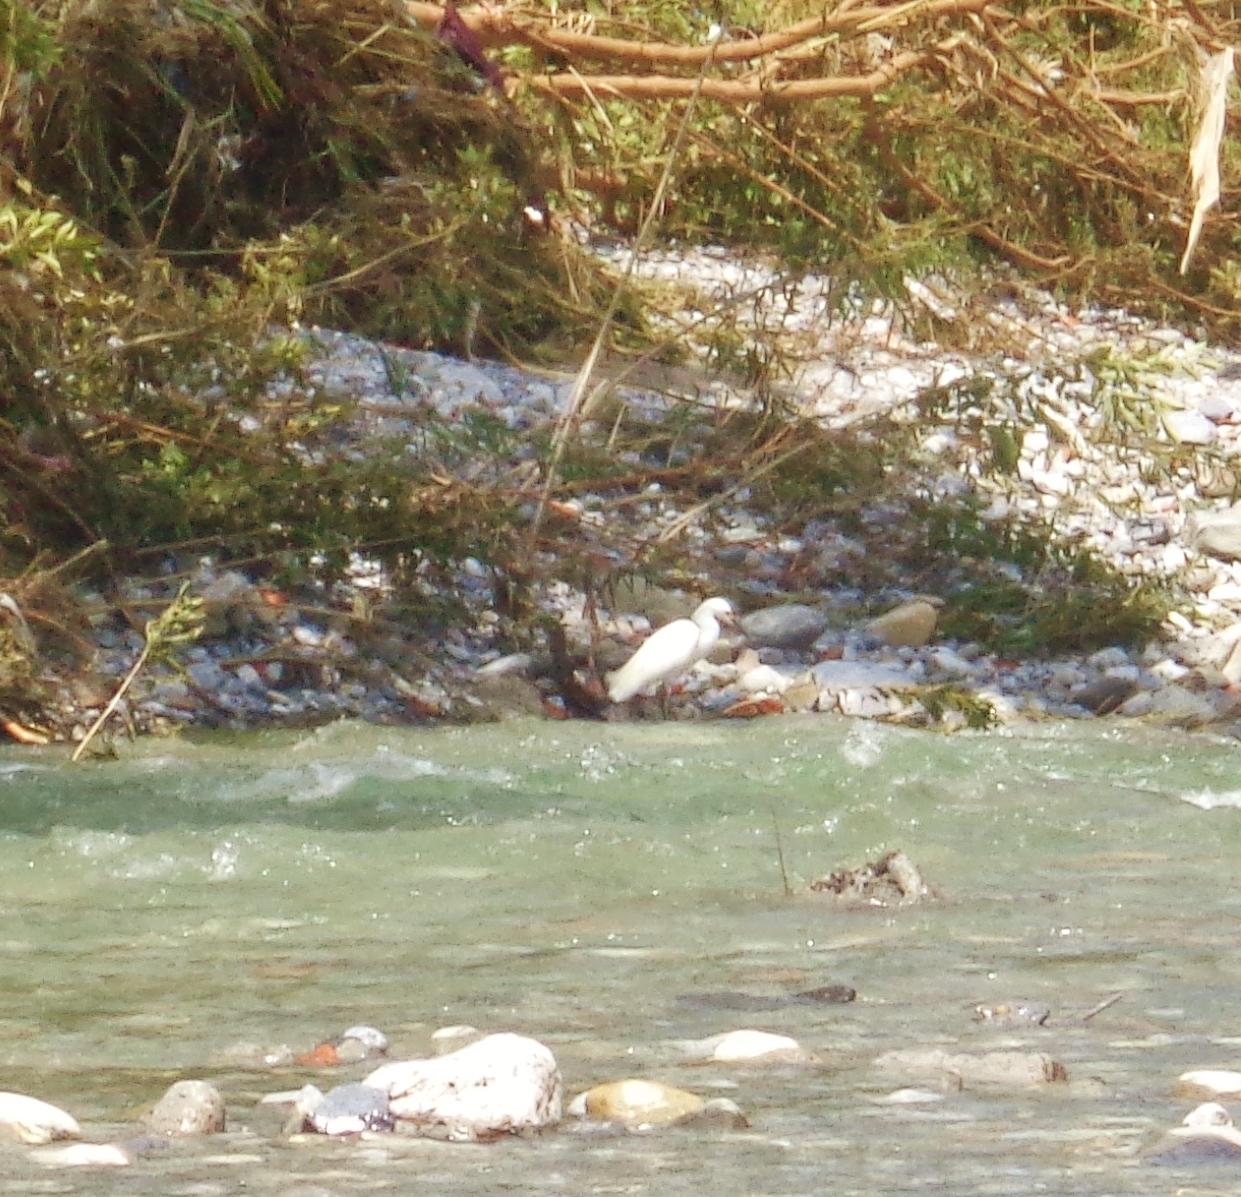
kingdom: Animalia
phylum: Chordata
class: Aves
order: Pelecaniformes
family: Ardeidae
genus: Egretta
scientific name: Egretta thula
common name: Snowy egret
